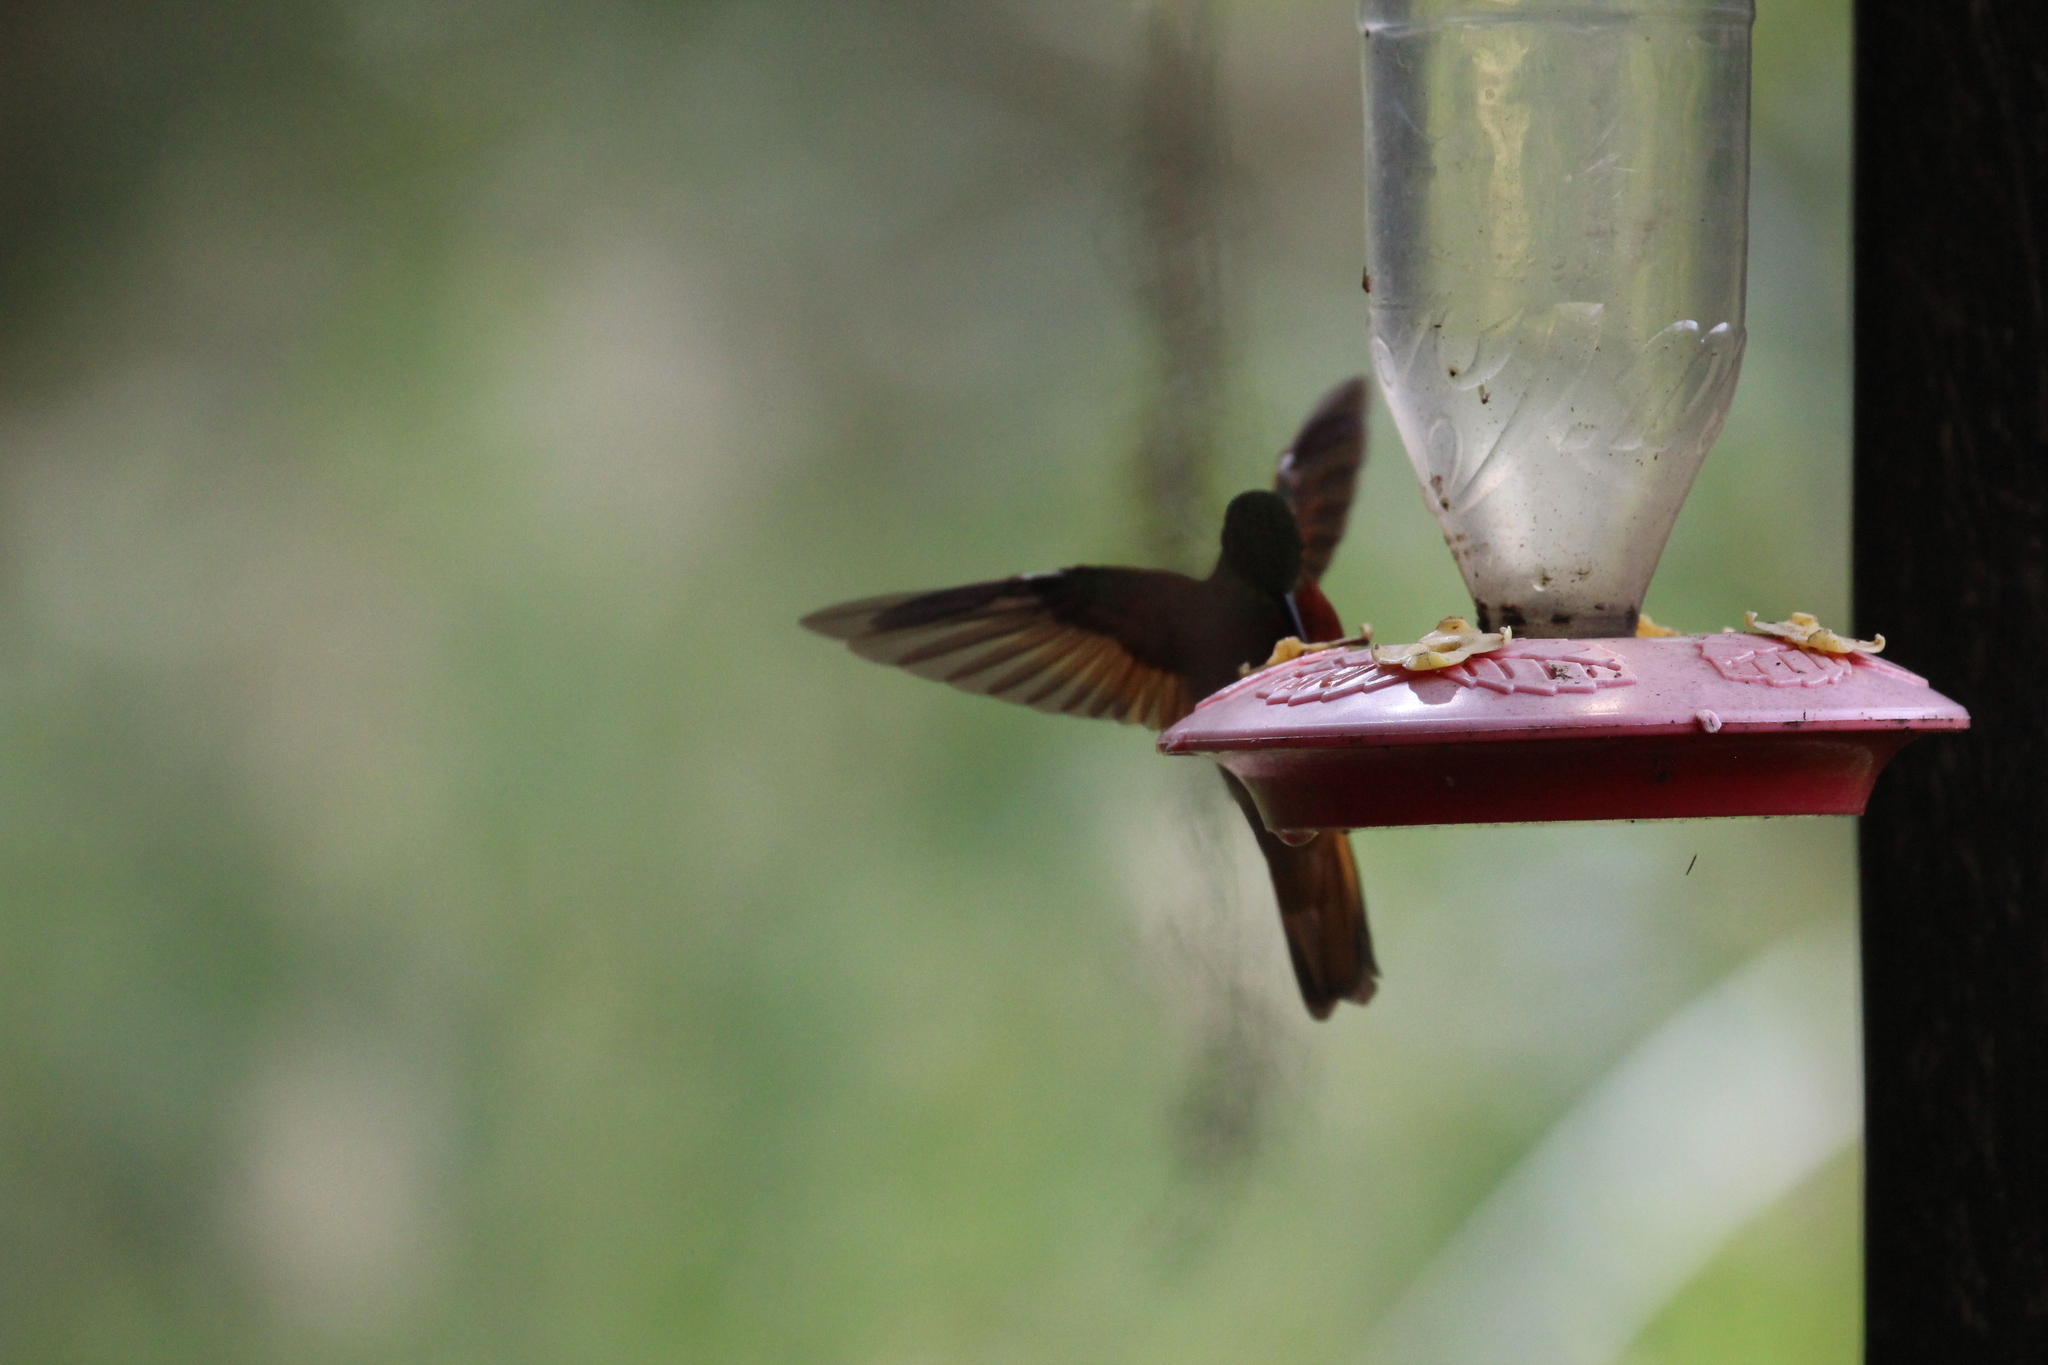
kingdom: Animalia
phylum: Chordata
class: Aves
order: Apodiformes
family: Trochilidae
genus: Boissonneaua
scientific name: Boissonneaua matthewsii
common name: Chestnut-breasted coronet
